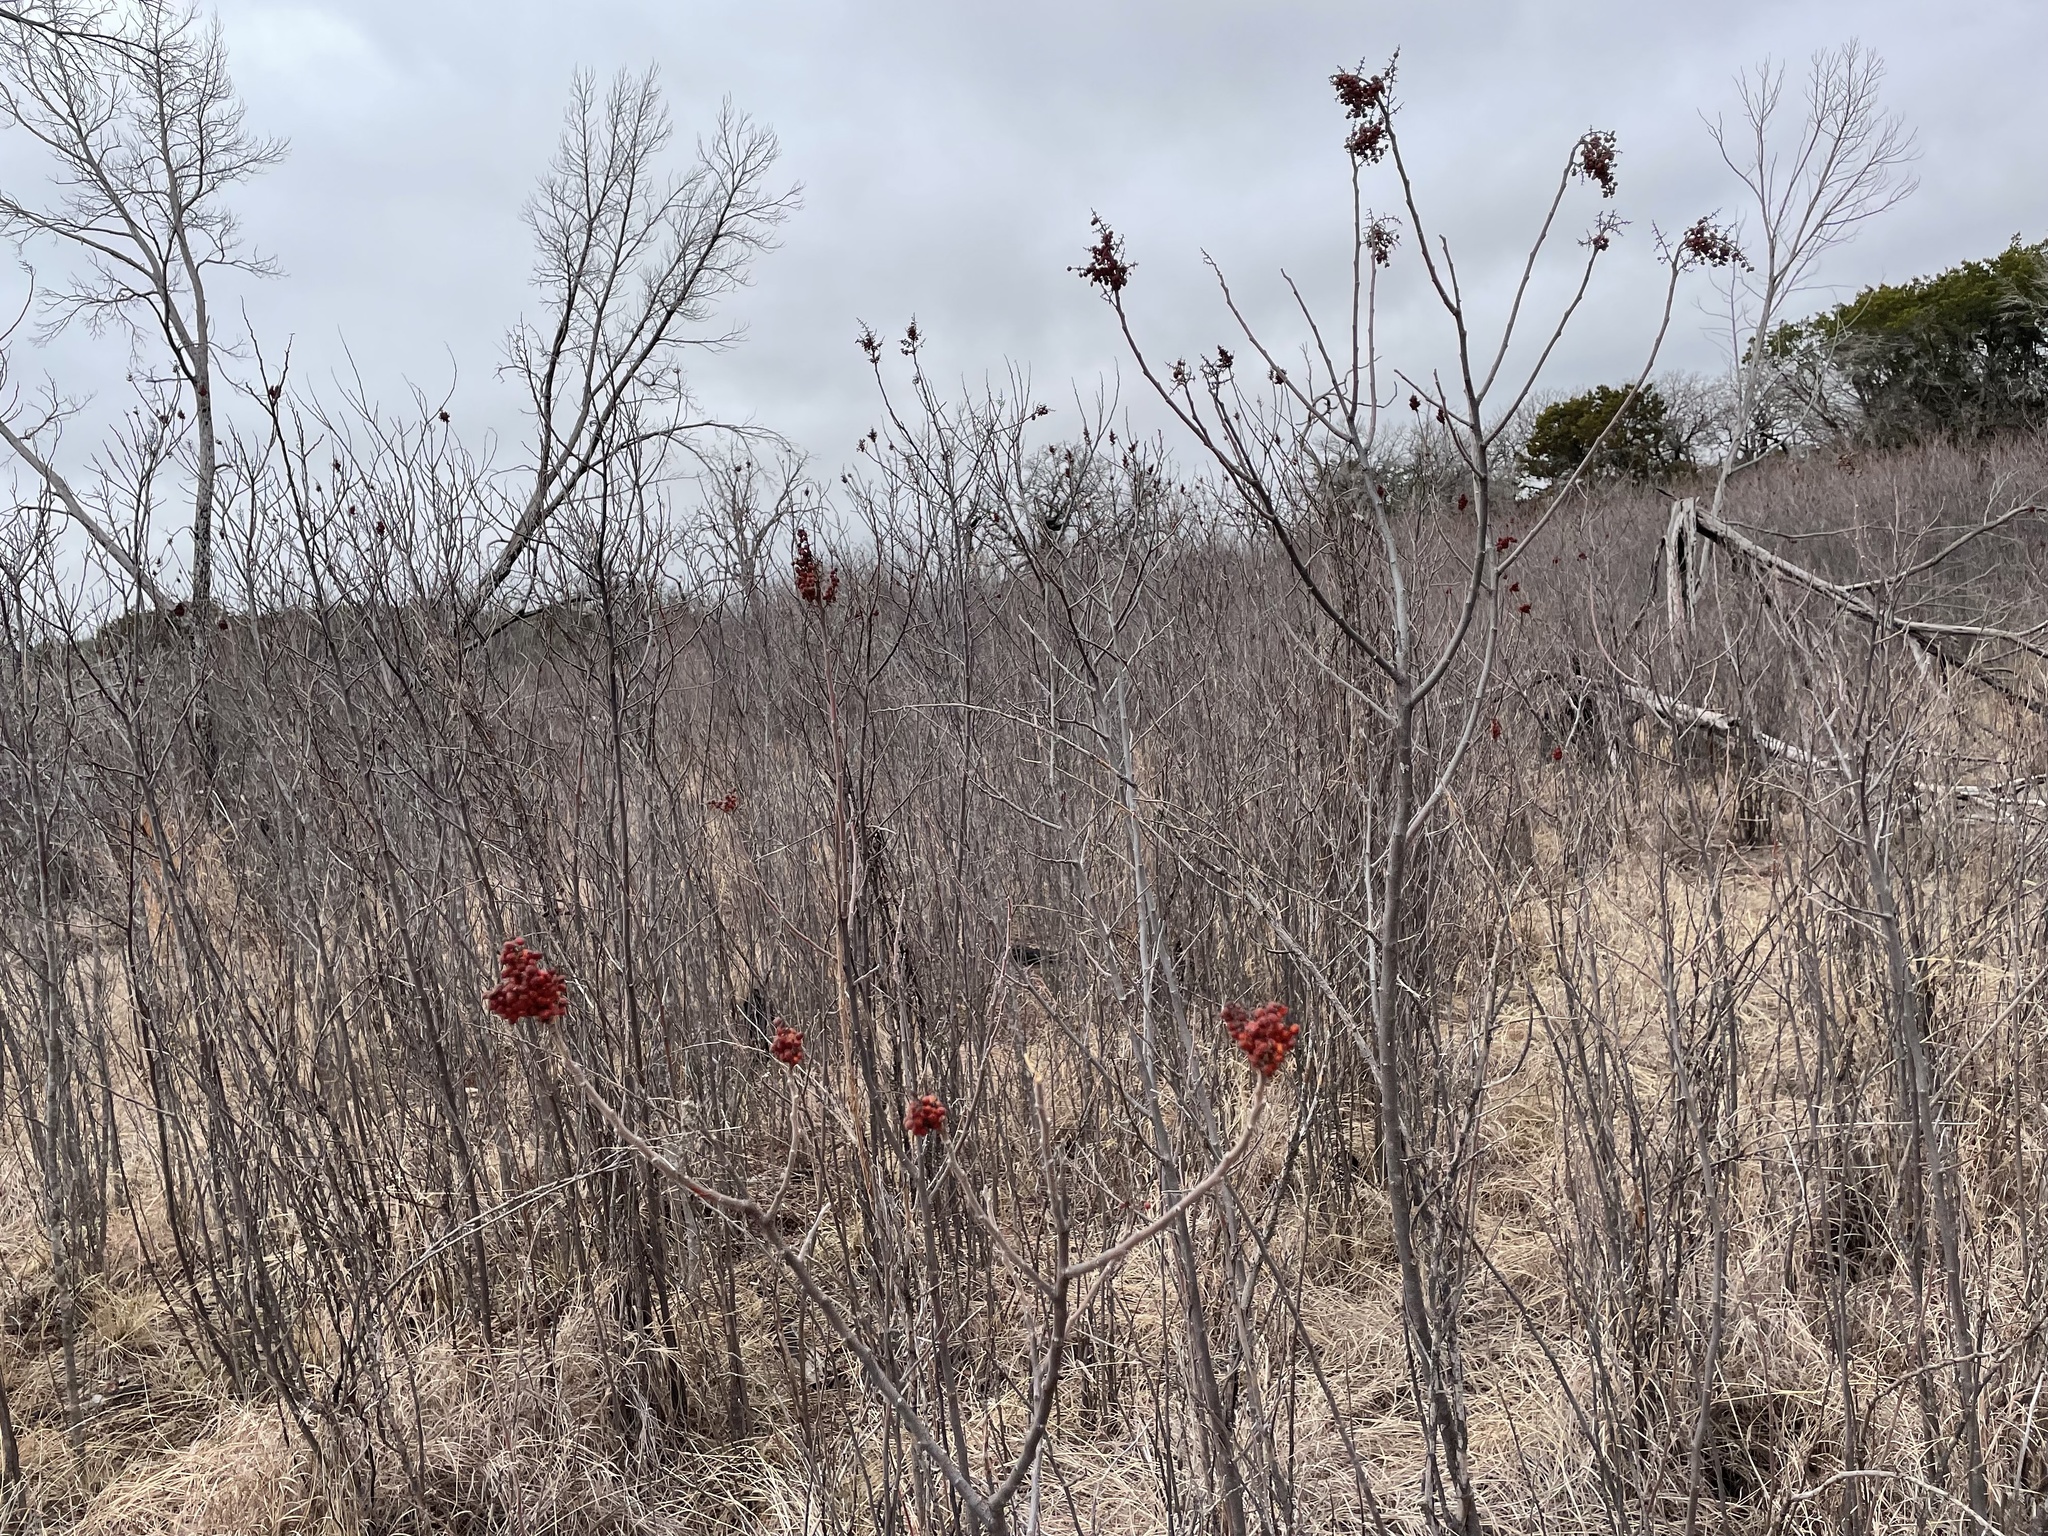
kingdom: Plantae
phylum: Tracheophyta
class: Magnoliopsida
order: Sapindales
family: Anacardiaceae
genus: Rhus
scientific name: Rhus lanceolata
